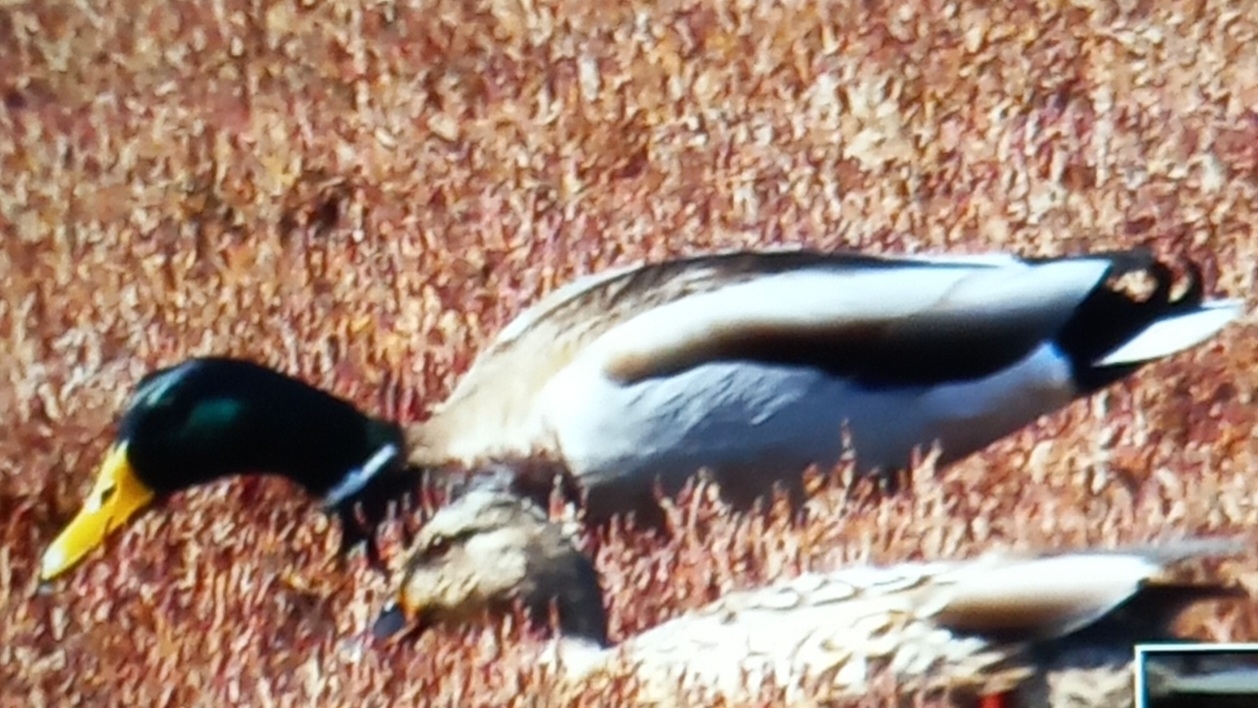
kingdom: Animalia
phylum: Chordata
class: Aves
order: Anseriformes
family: Anatidae
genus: Anas
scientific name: Anas platyrhynchos
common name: Mallard
